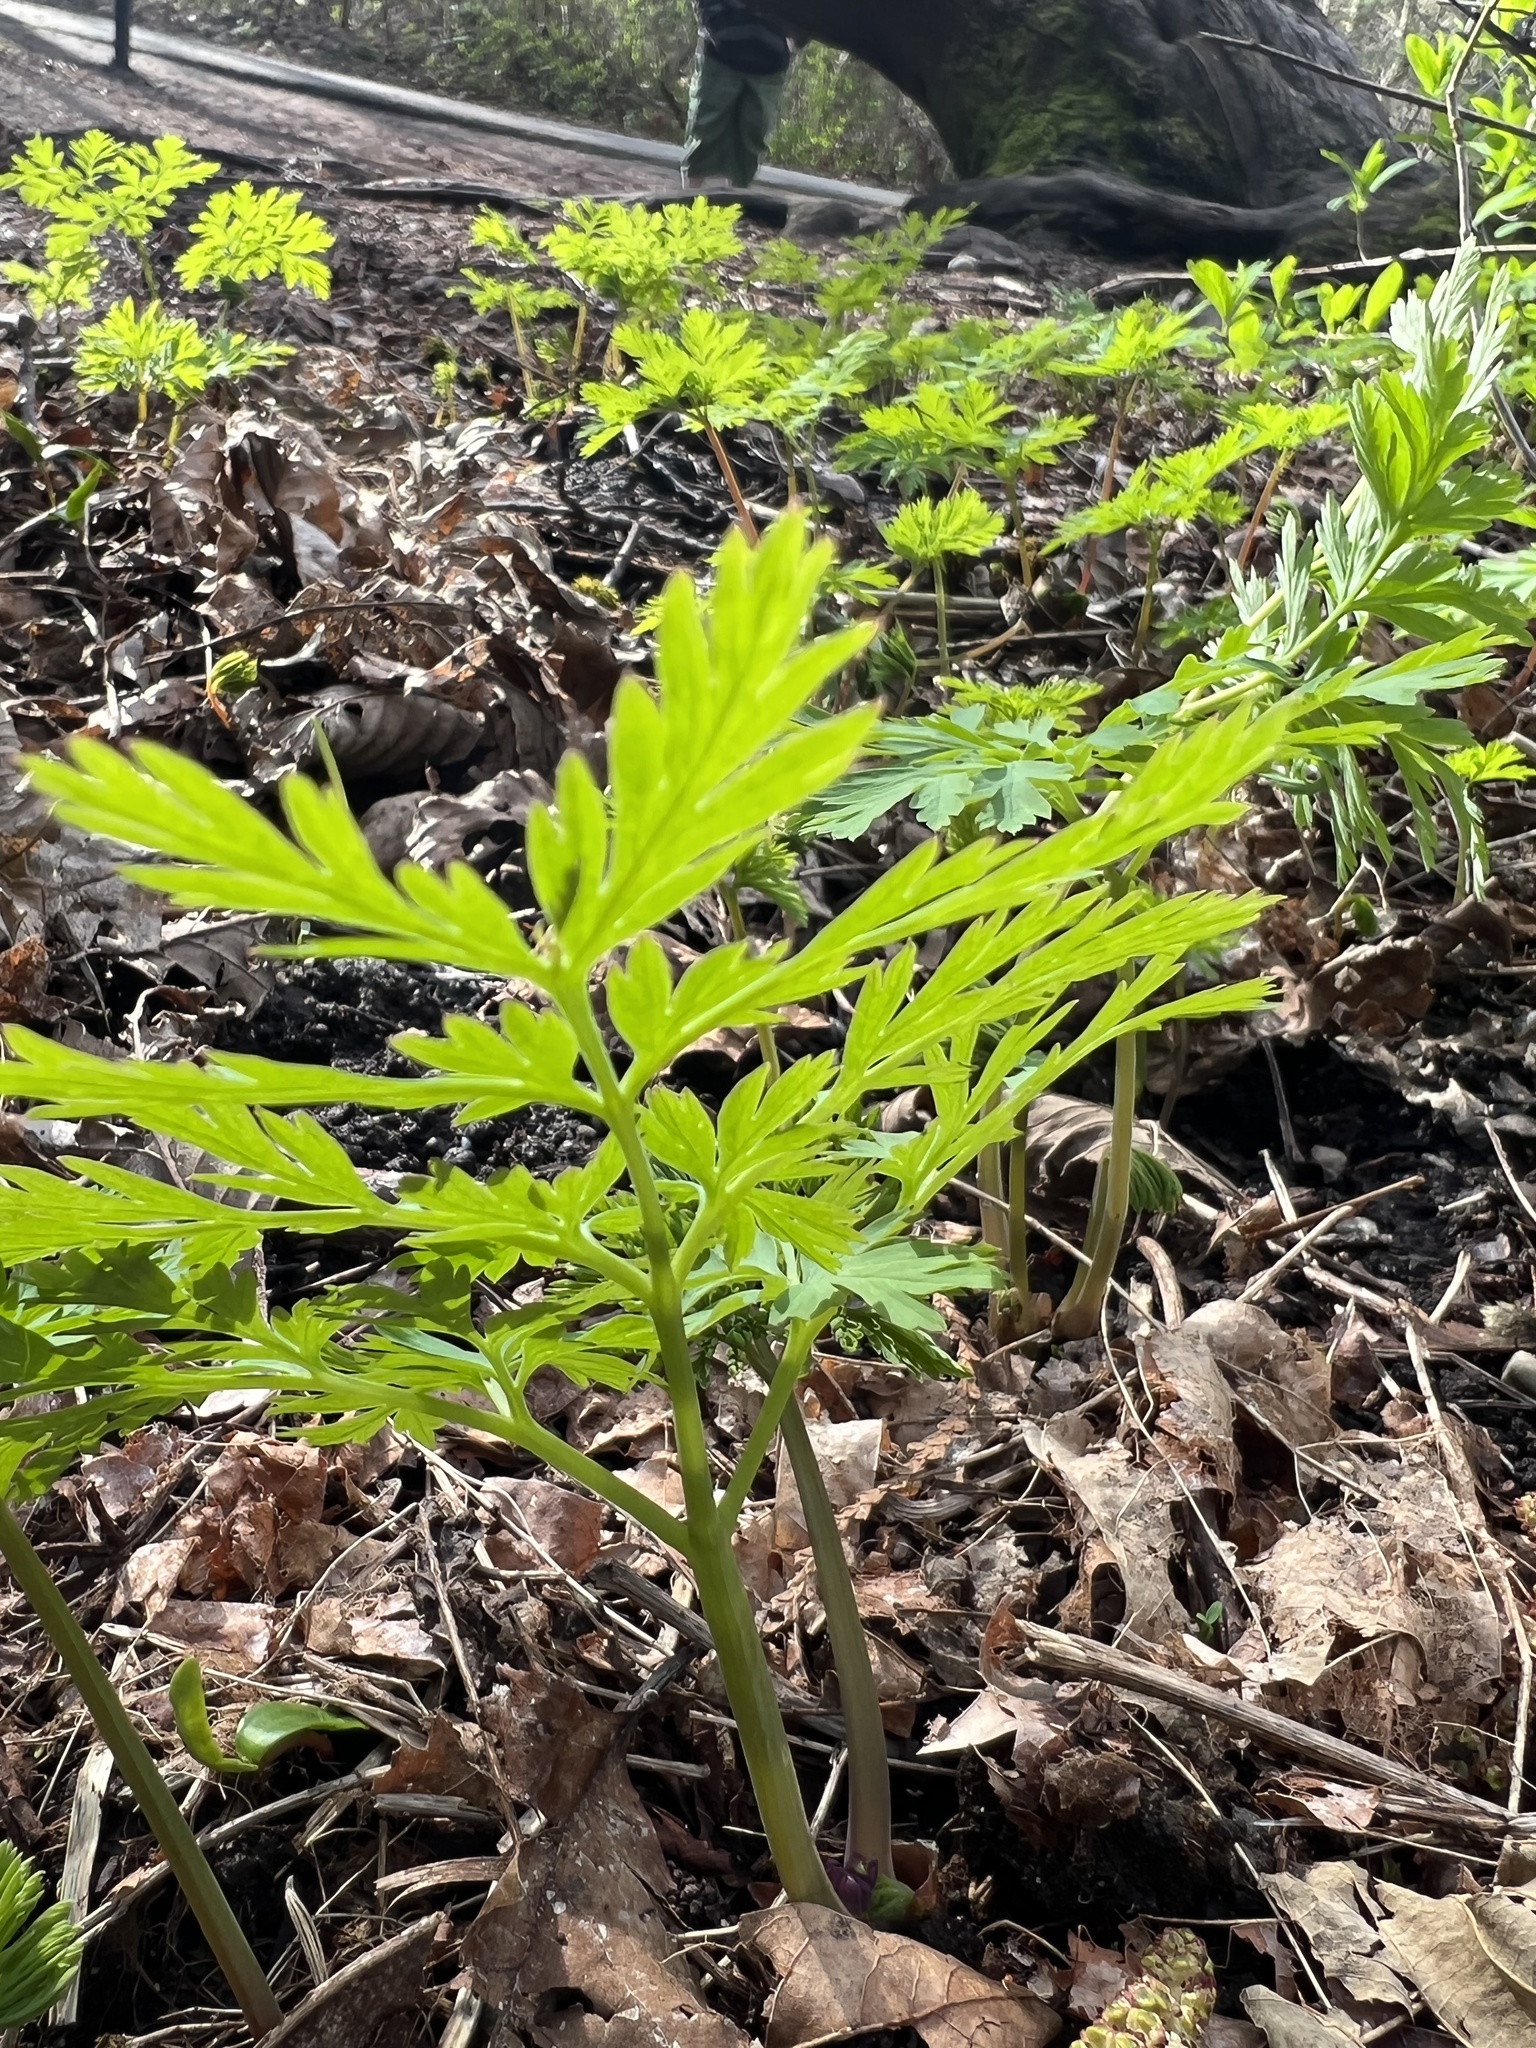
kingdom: Plantae
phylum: Tracheophyta
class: Magnoliopsida
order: Ranunculales
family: Papaveraceae
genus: Dicentra
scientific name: Dicentra formosa
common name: Bleeding-heart
